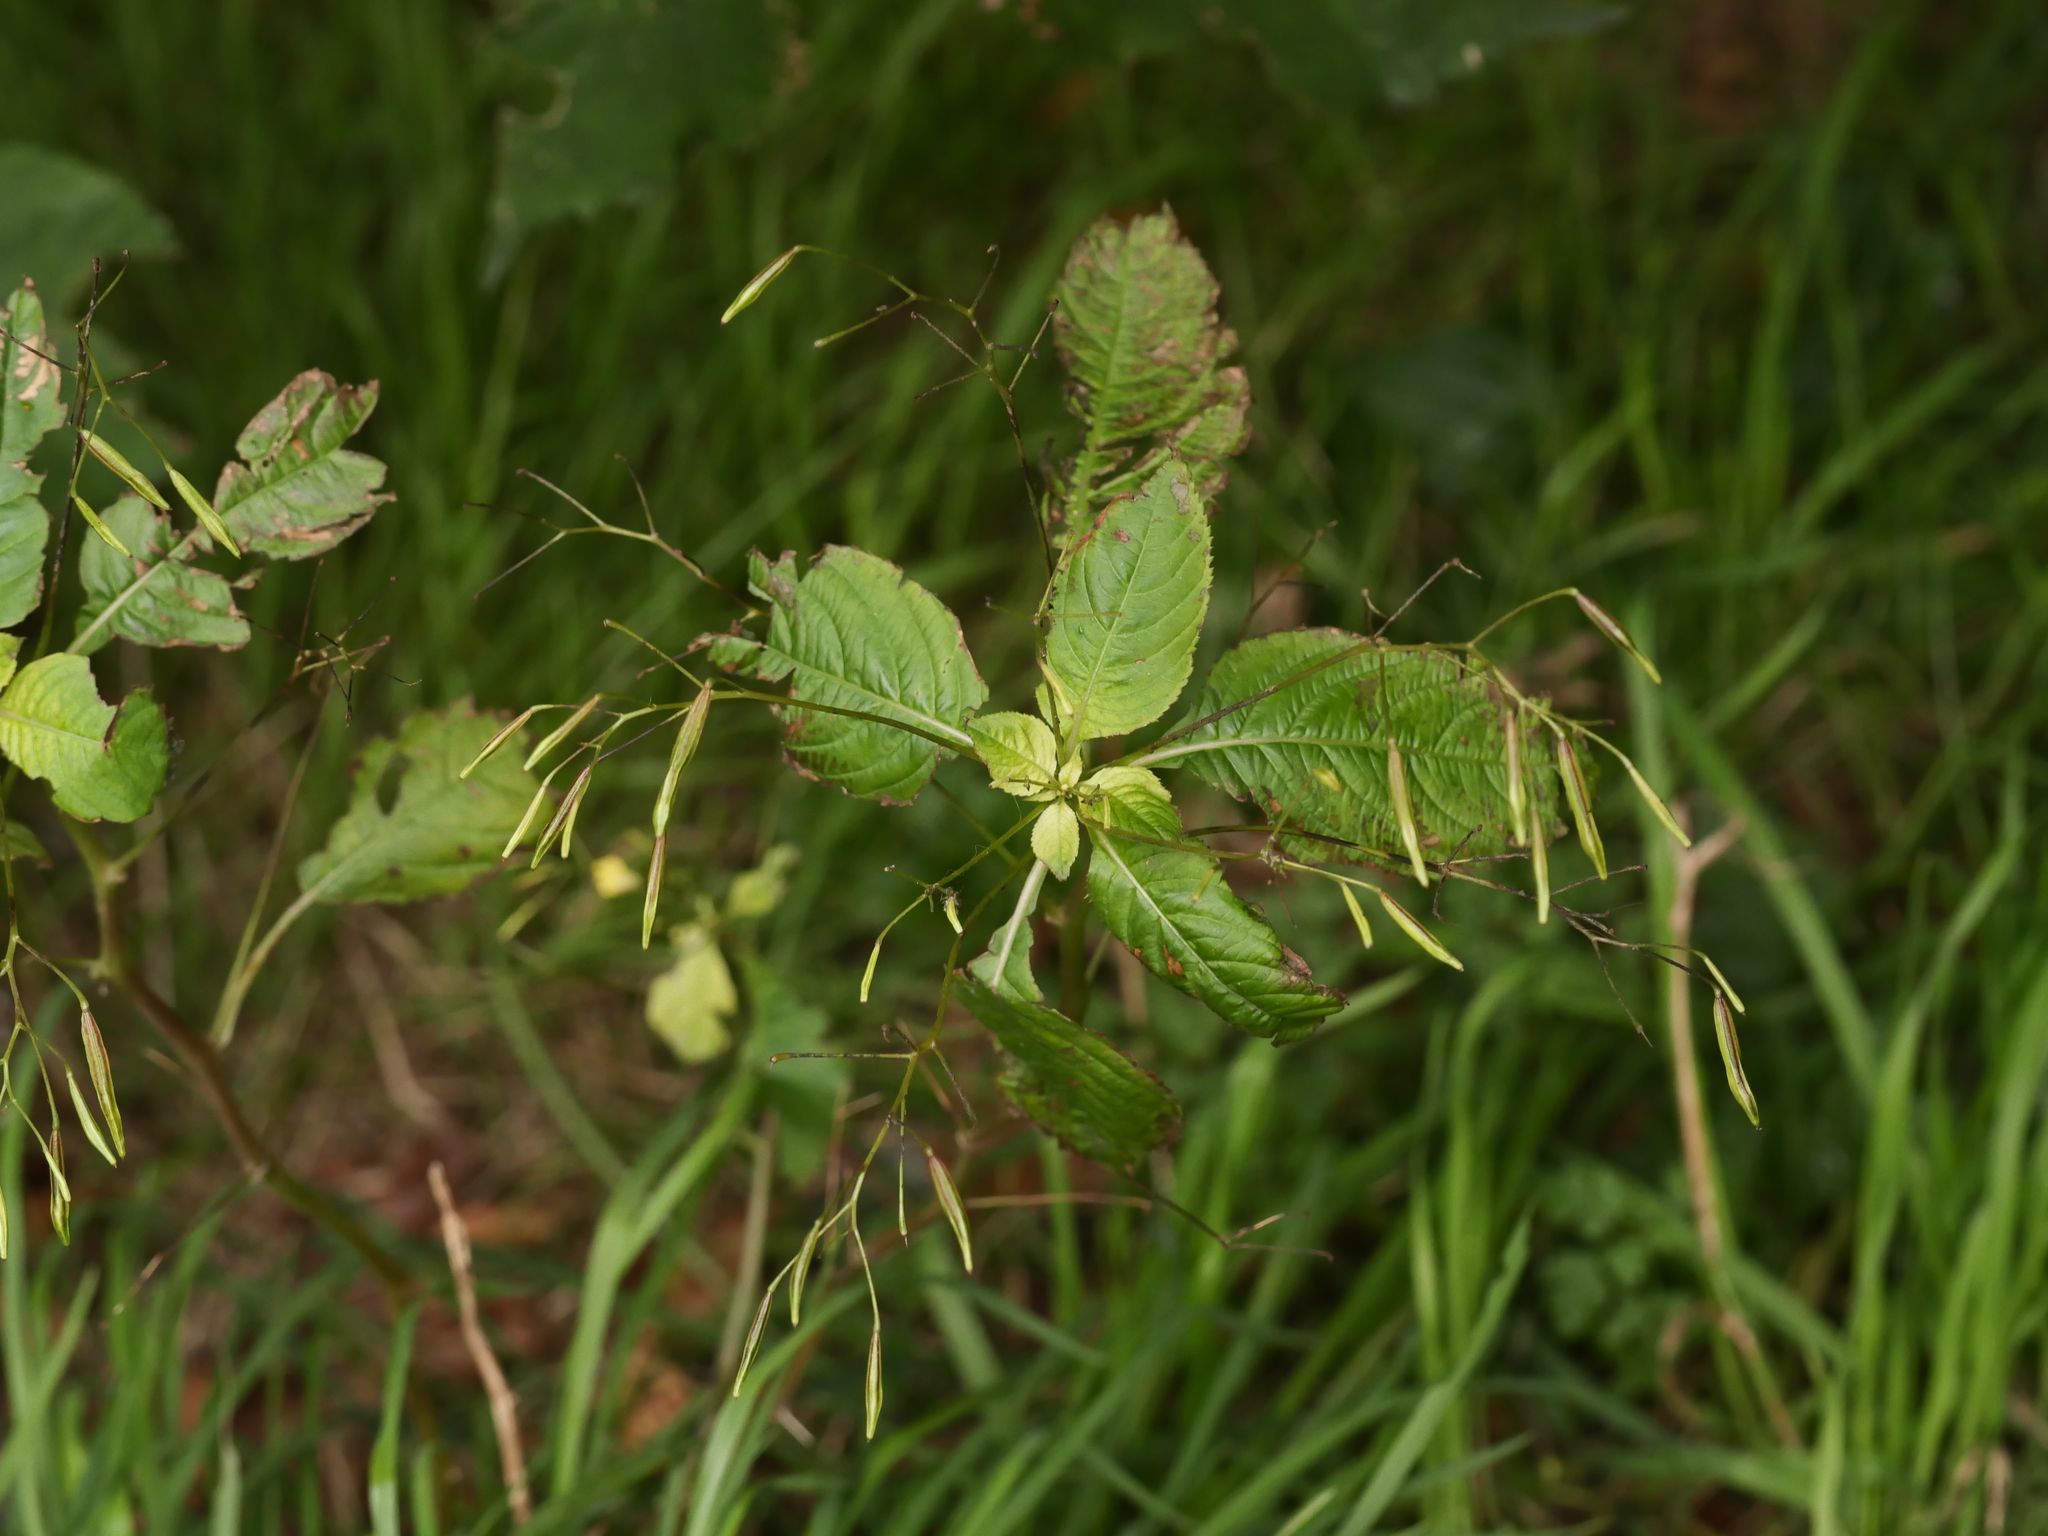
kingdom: Plantae
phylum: Tracheophyta
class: Magnoliopsida
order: Ericales
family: Balsaminaceae
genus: Impatiens
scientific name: Impatiens parviflora
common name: Small balsam
